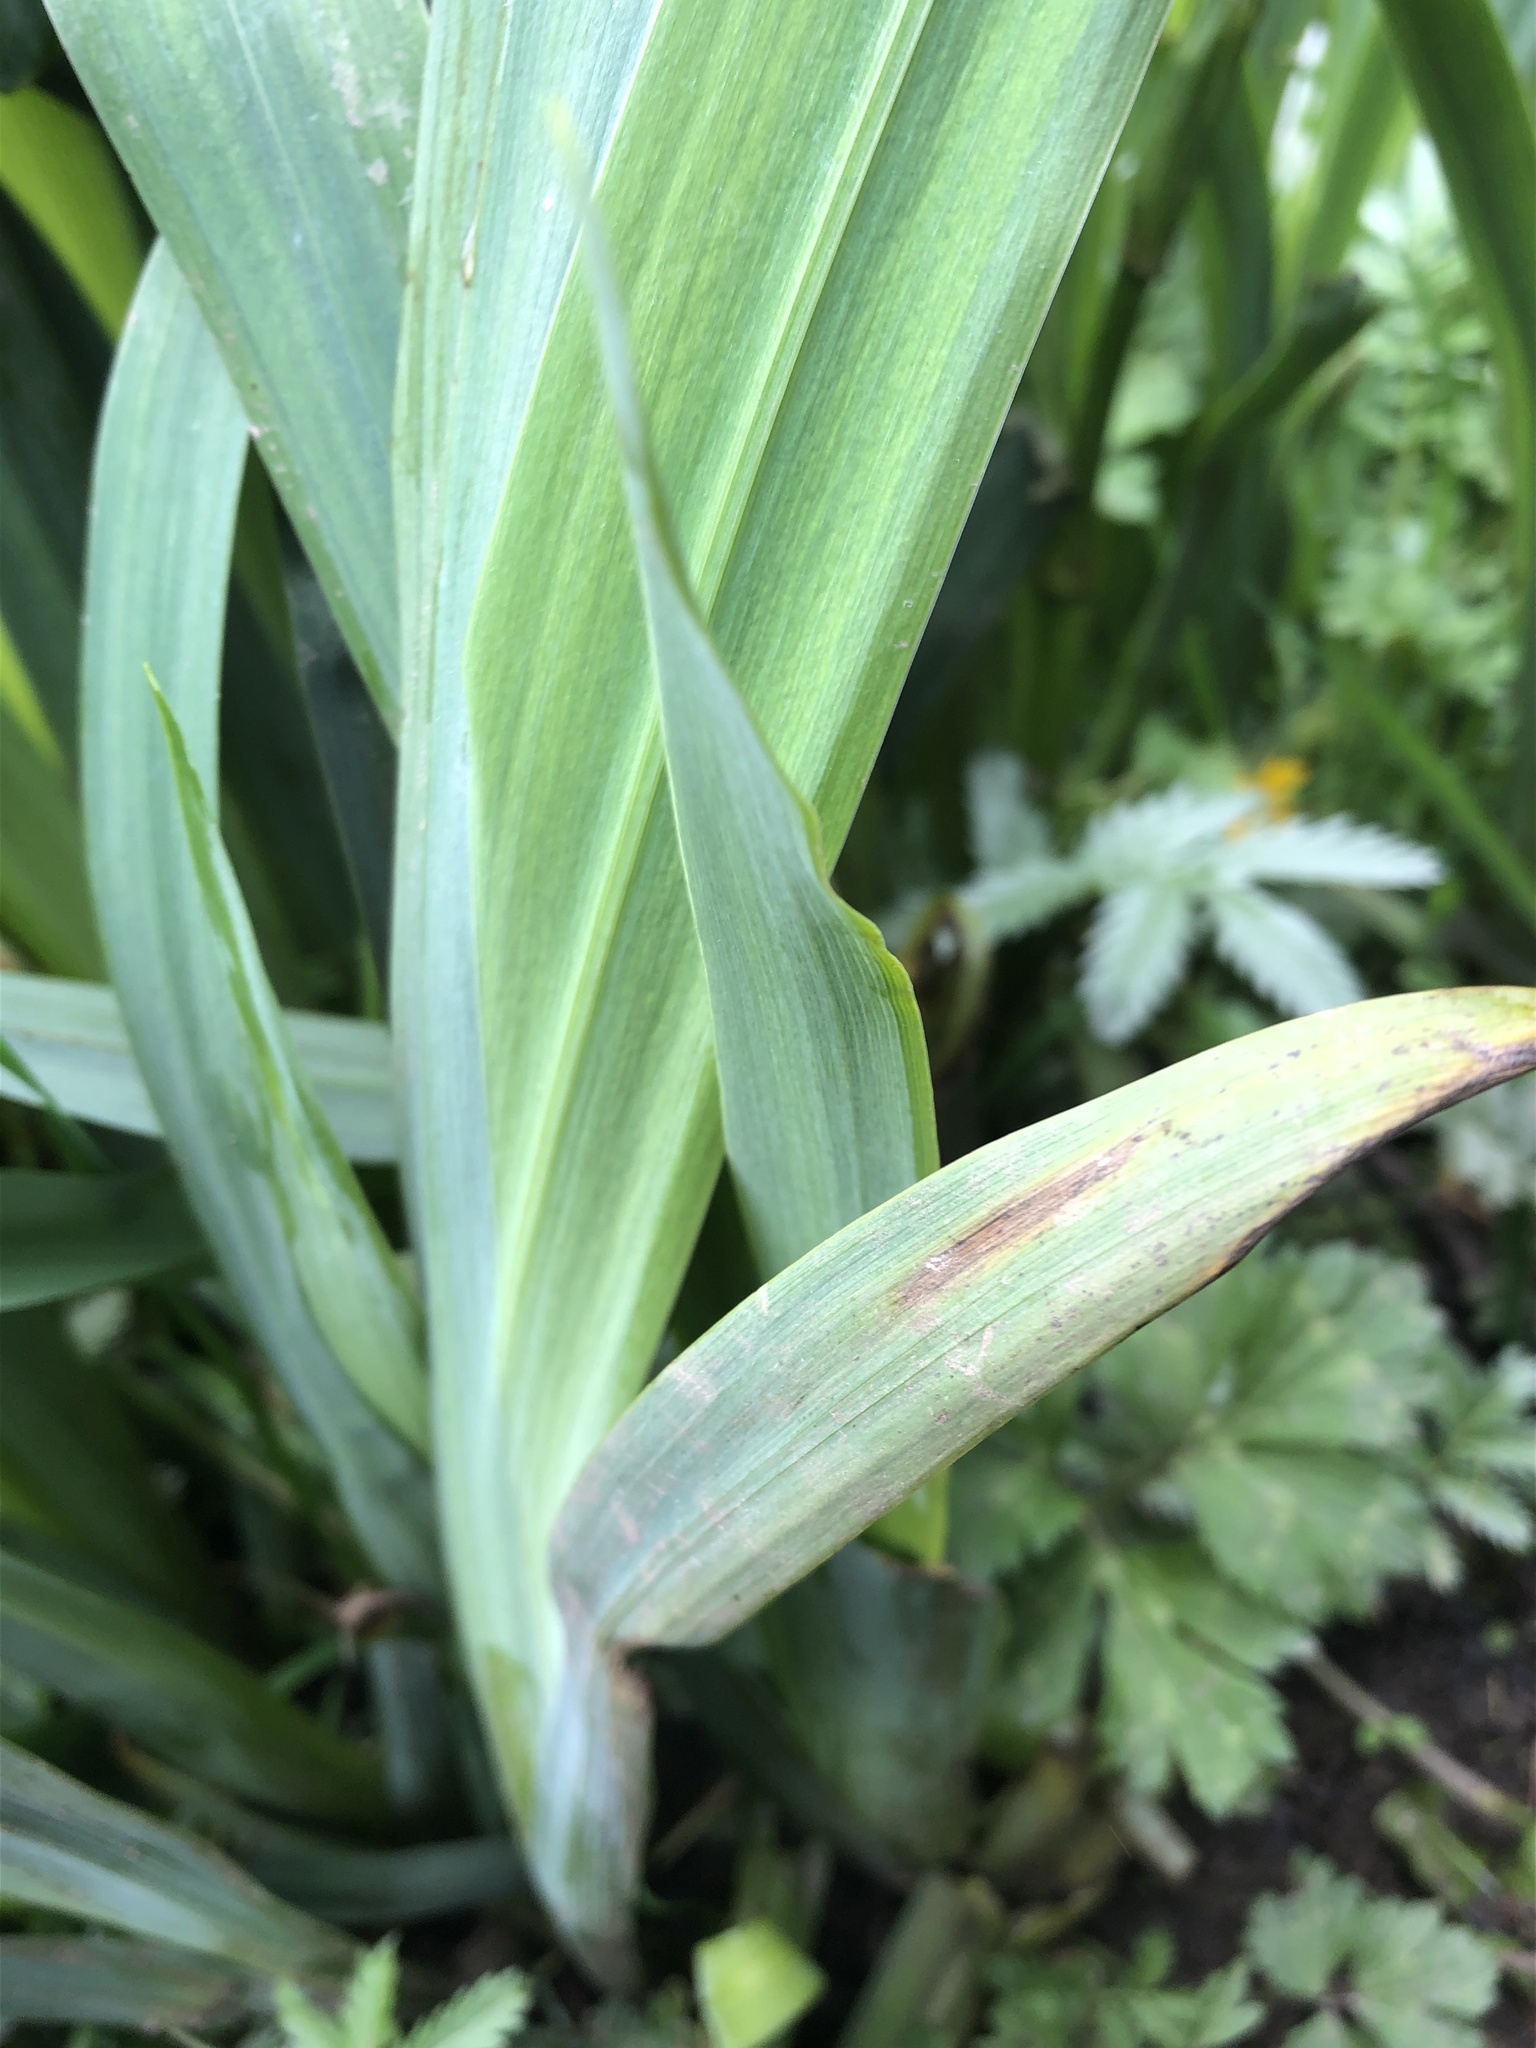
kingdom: Plantae
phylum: Tracheophyta
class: Liliopsida
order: Asparagales
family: Iridaceae
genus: Iris
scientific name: Iris pseudacorus
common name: Yellow flag
